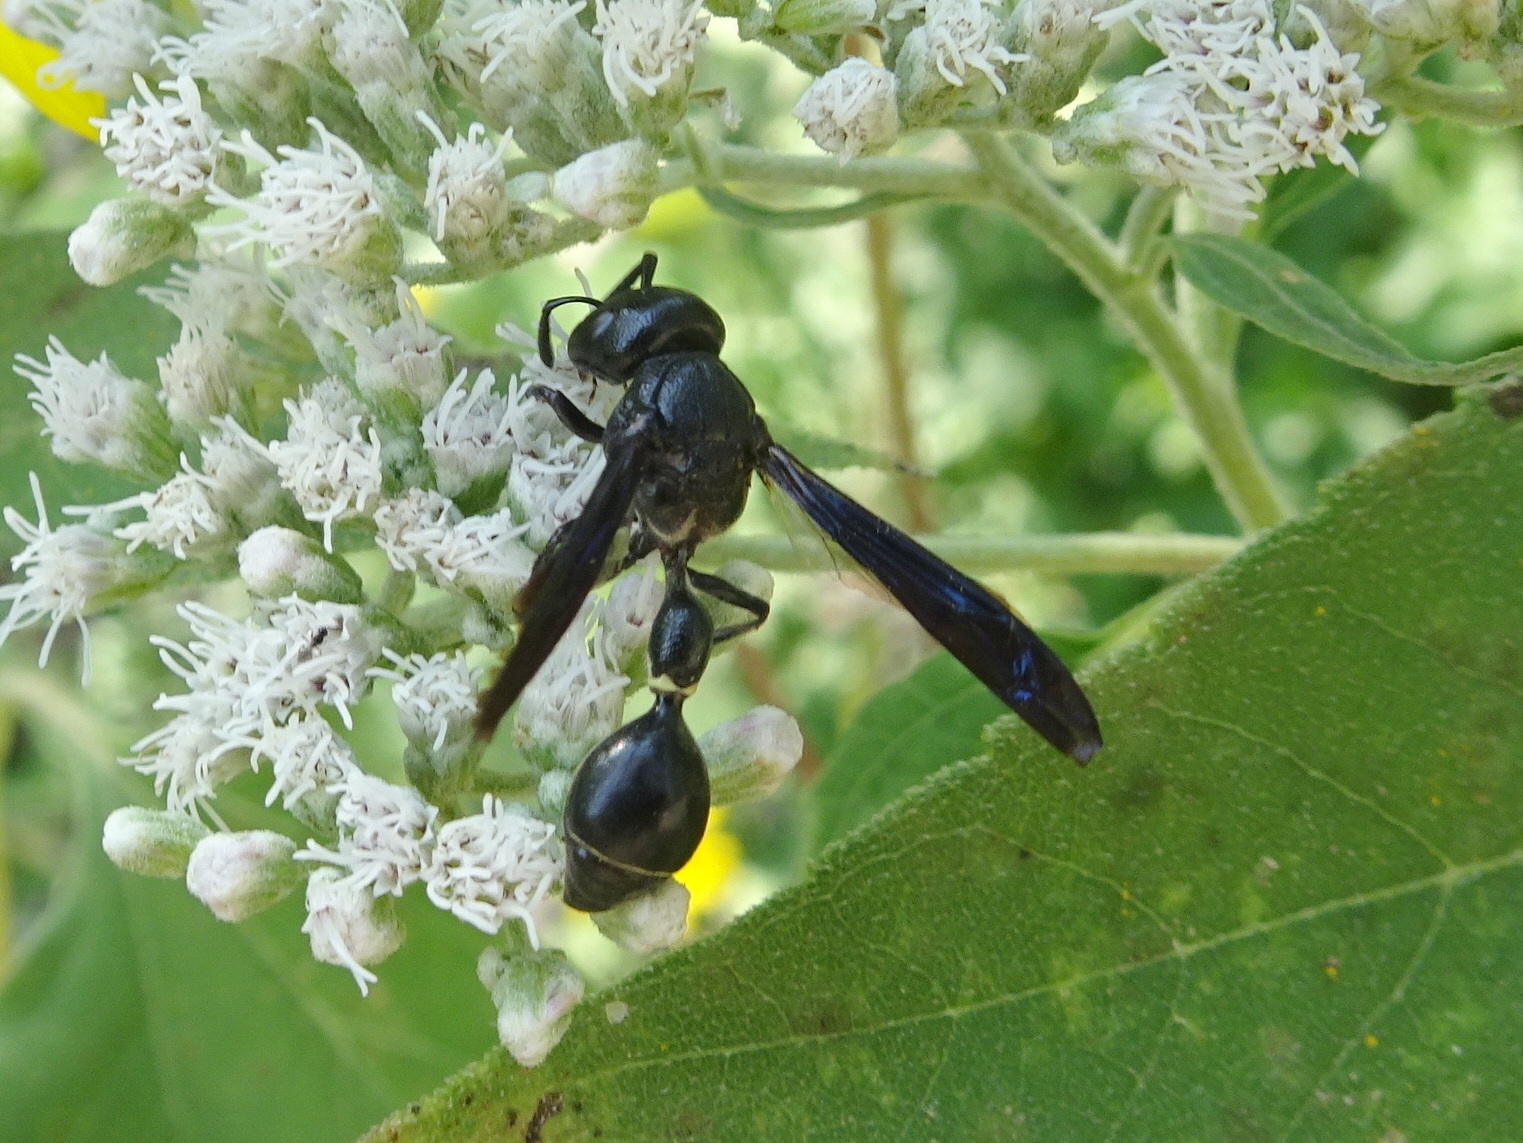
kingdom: Animalia
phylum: Arthropoda
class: Insecta
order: Hymenoptera
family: Eumenidae
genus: Zethus
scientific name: Zethus spinipes
